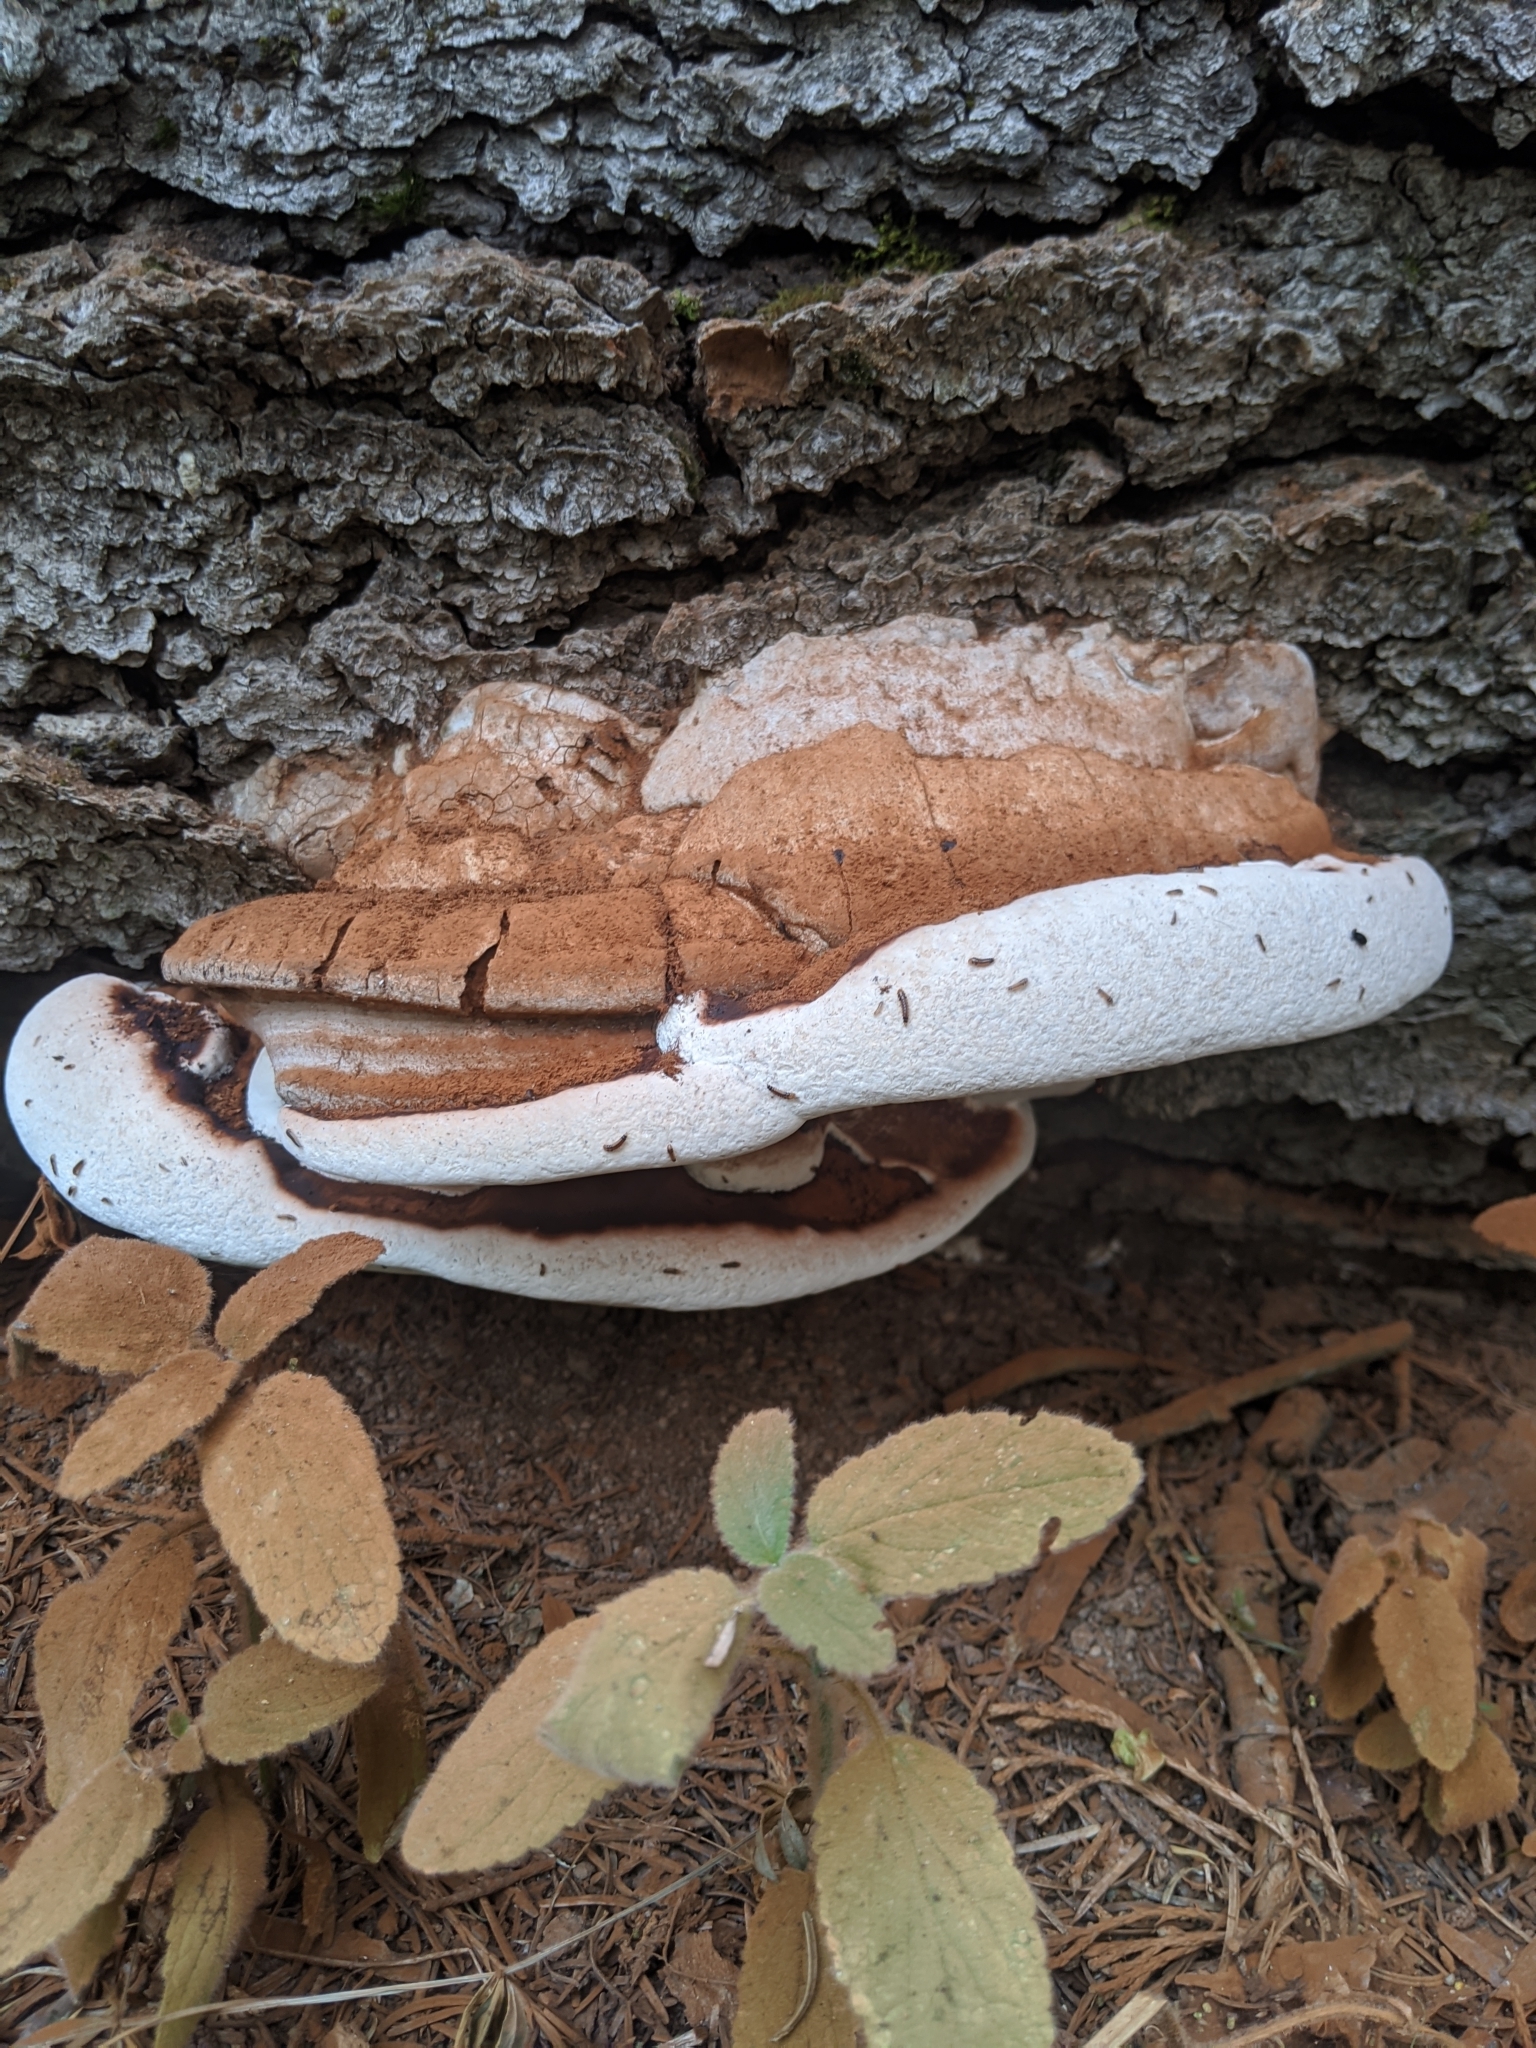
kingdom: Fungi
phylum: Basidiomycota
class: Agaricomycetes
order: Polyporales
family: Polyporaceae
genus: Ganoderma
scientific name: Ganoderma applanatum
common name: Artist's bracket
